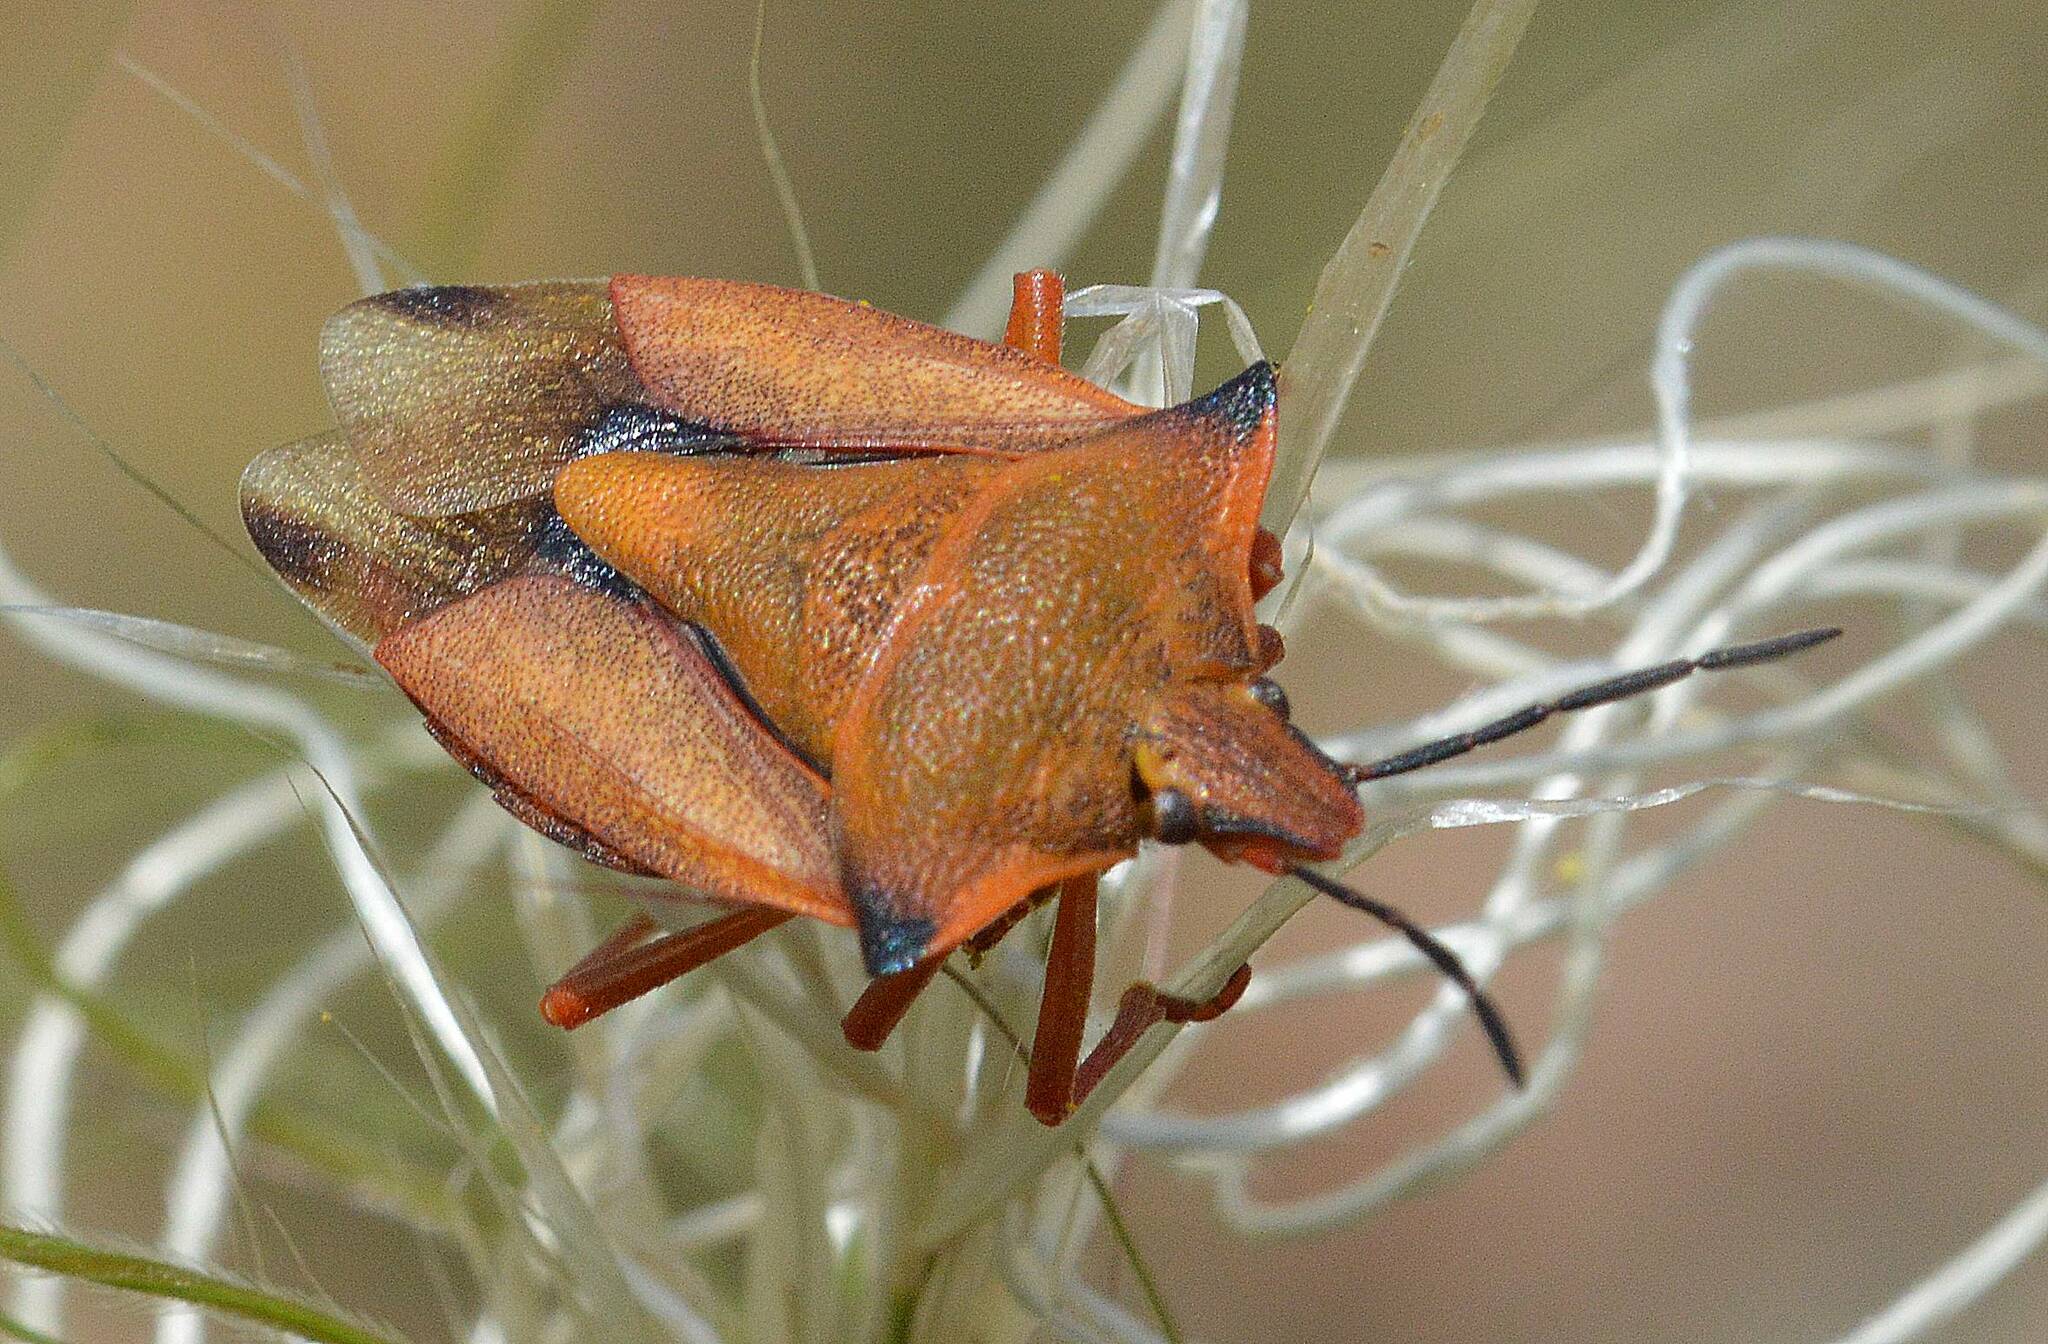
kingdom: Animalia
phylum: Arthropoda
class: Insecta
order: Hemiptera
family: Pentatomidae
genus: Carpocoris
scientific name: Carpocoris mediterraneus
